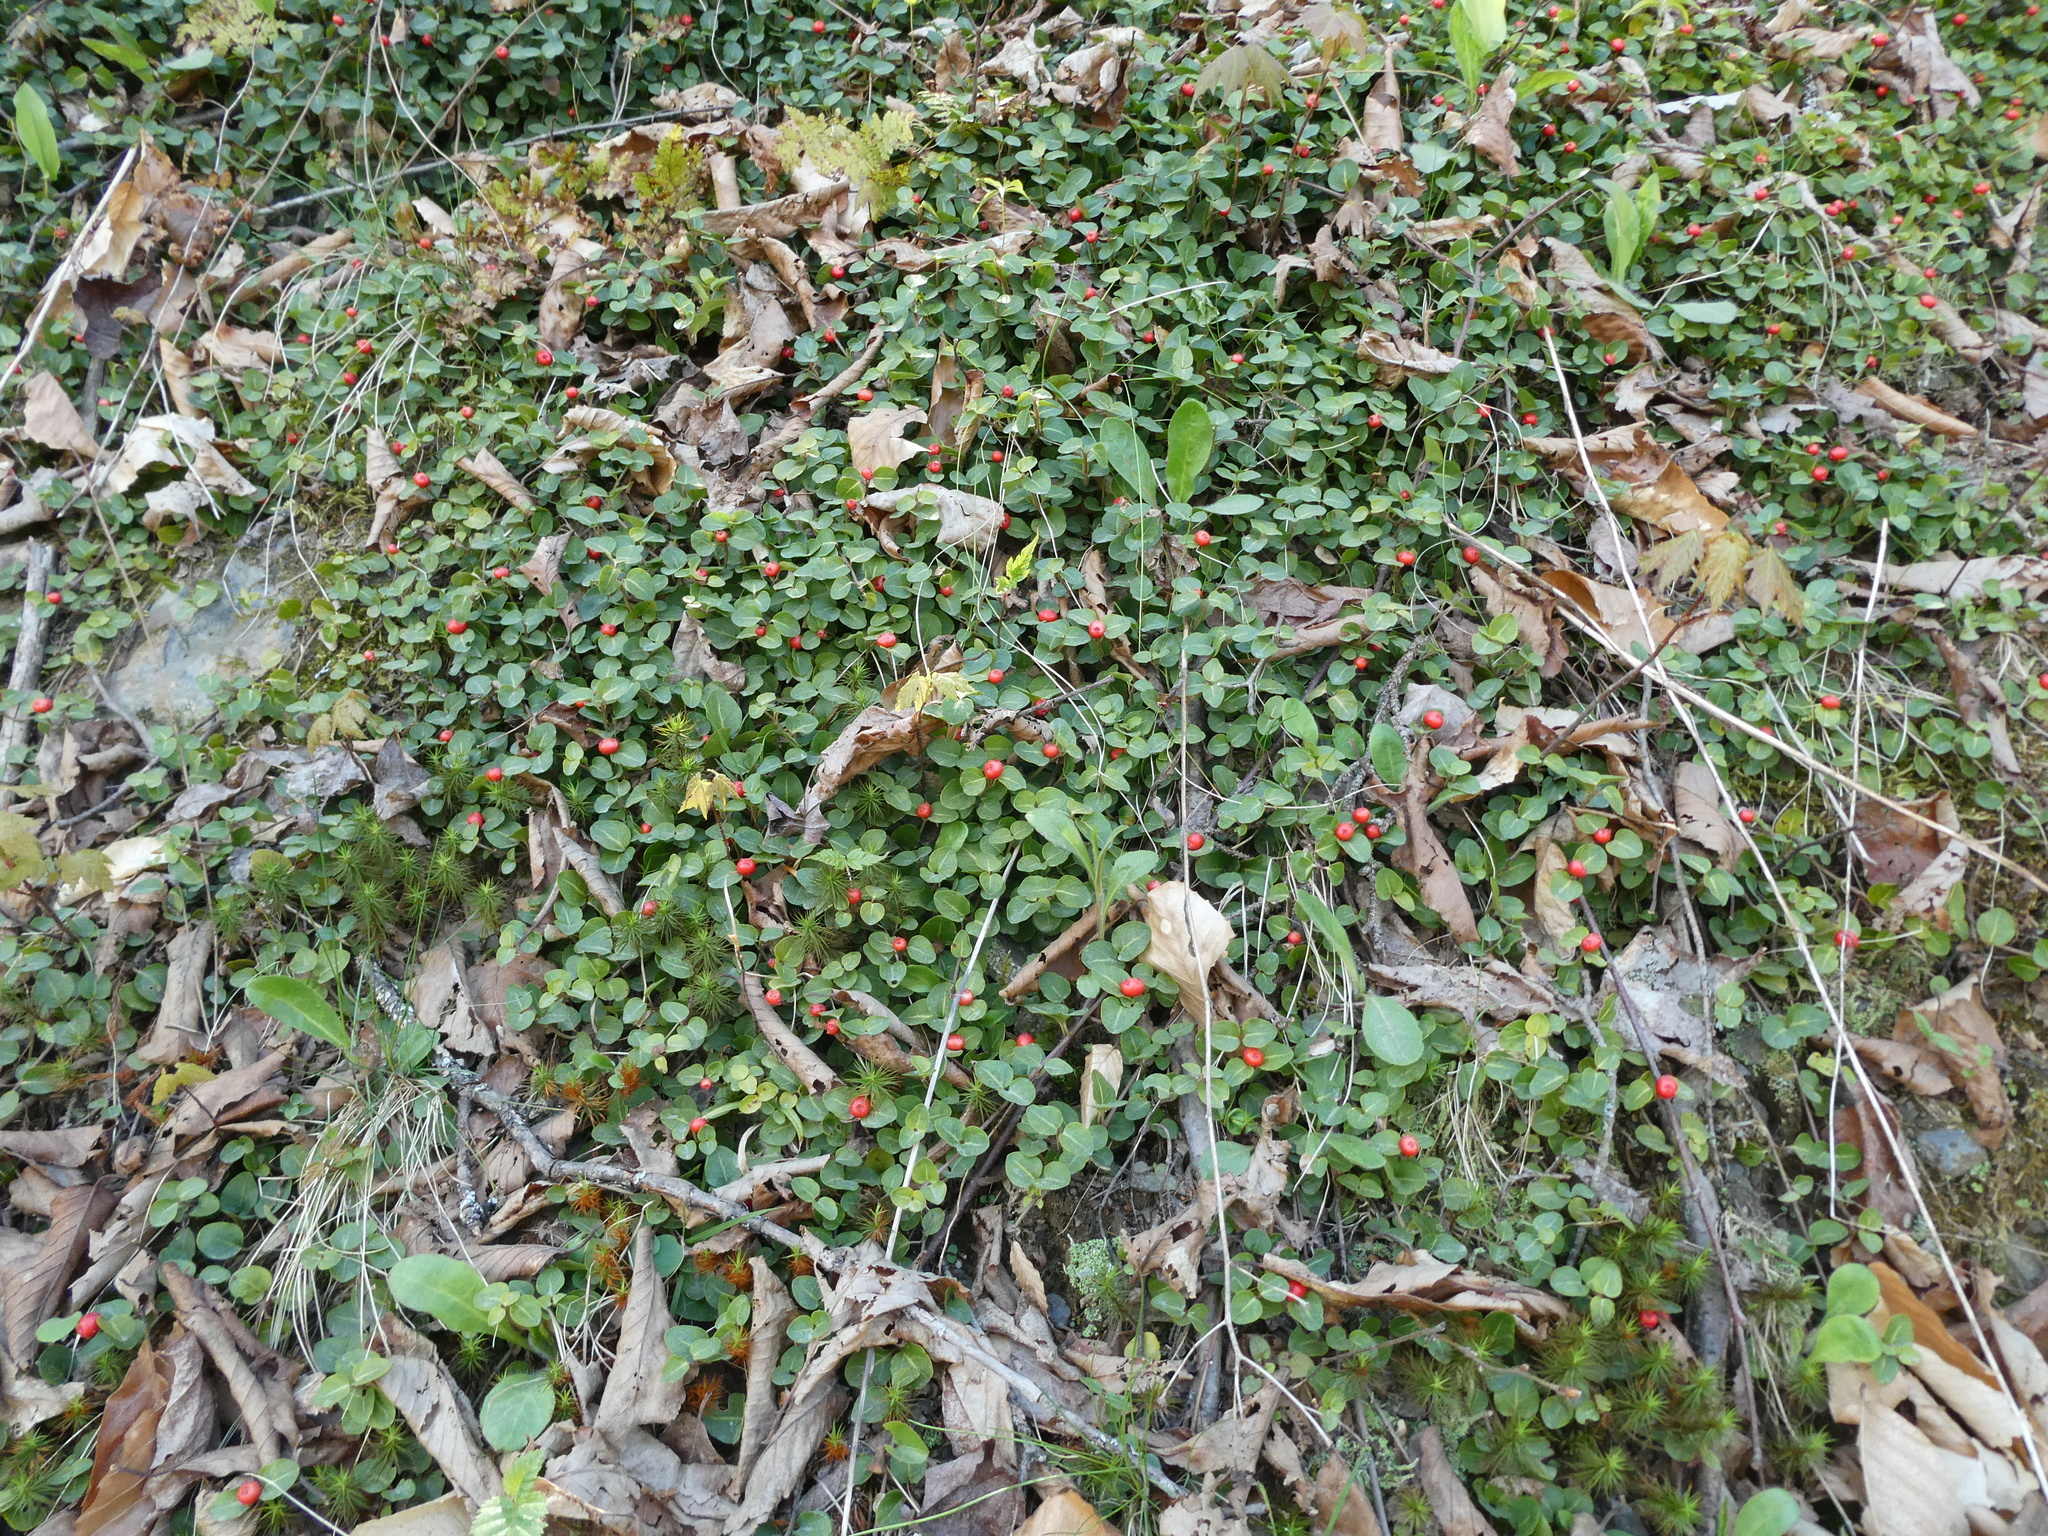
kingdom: Plantae
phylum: Tracheophyta
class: Magnoliopsida
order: Gentianales
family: Rubiaceae
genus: Mitchella
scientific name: Mitchella repens
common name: Partridge-berry
